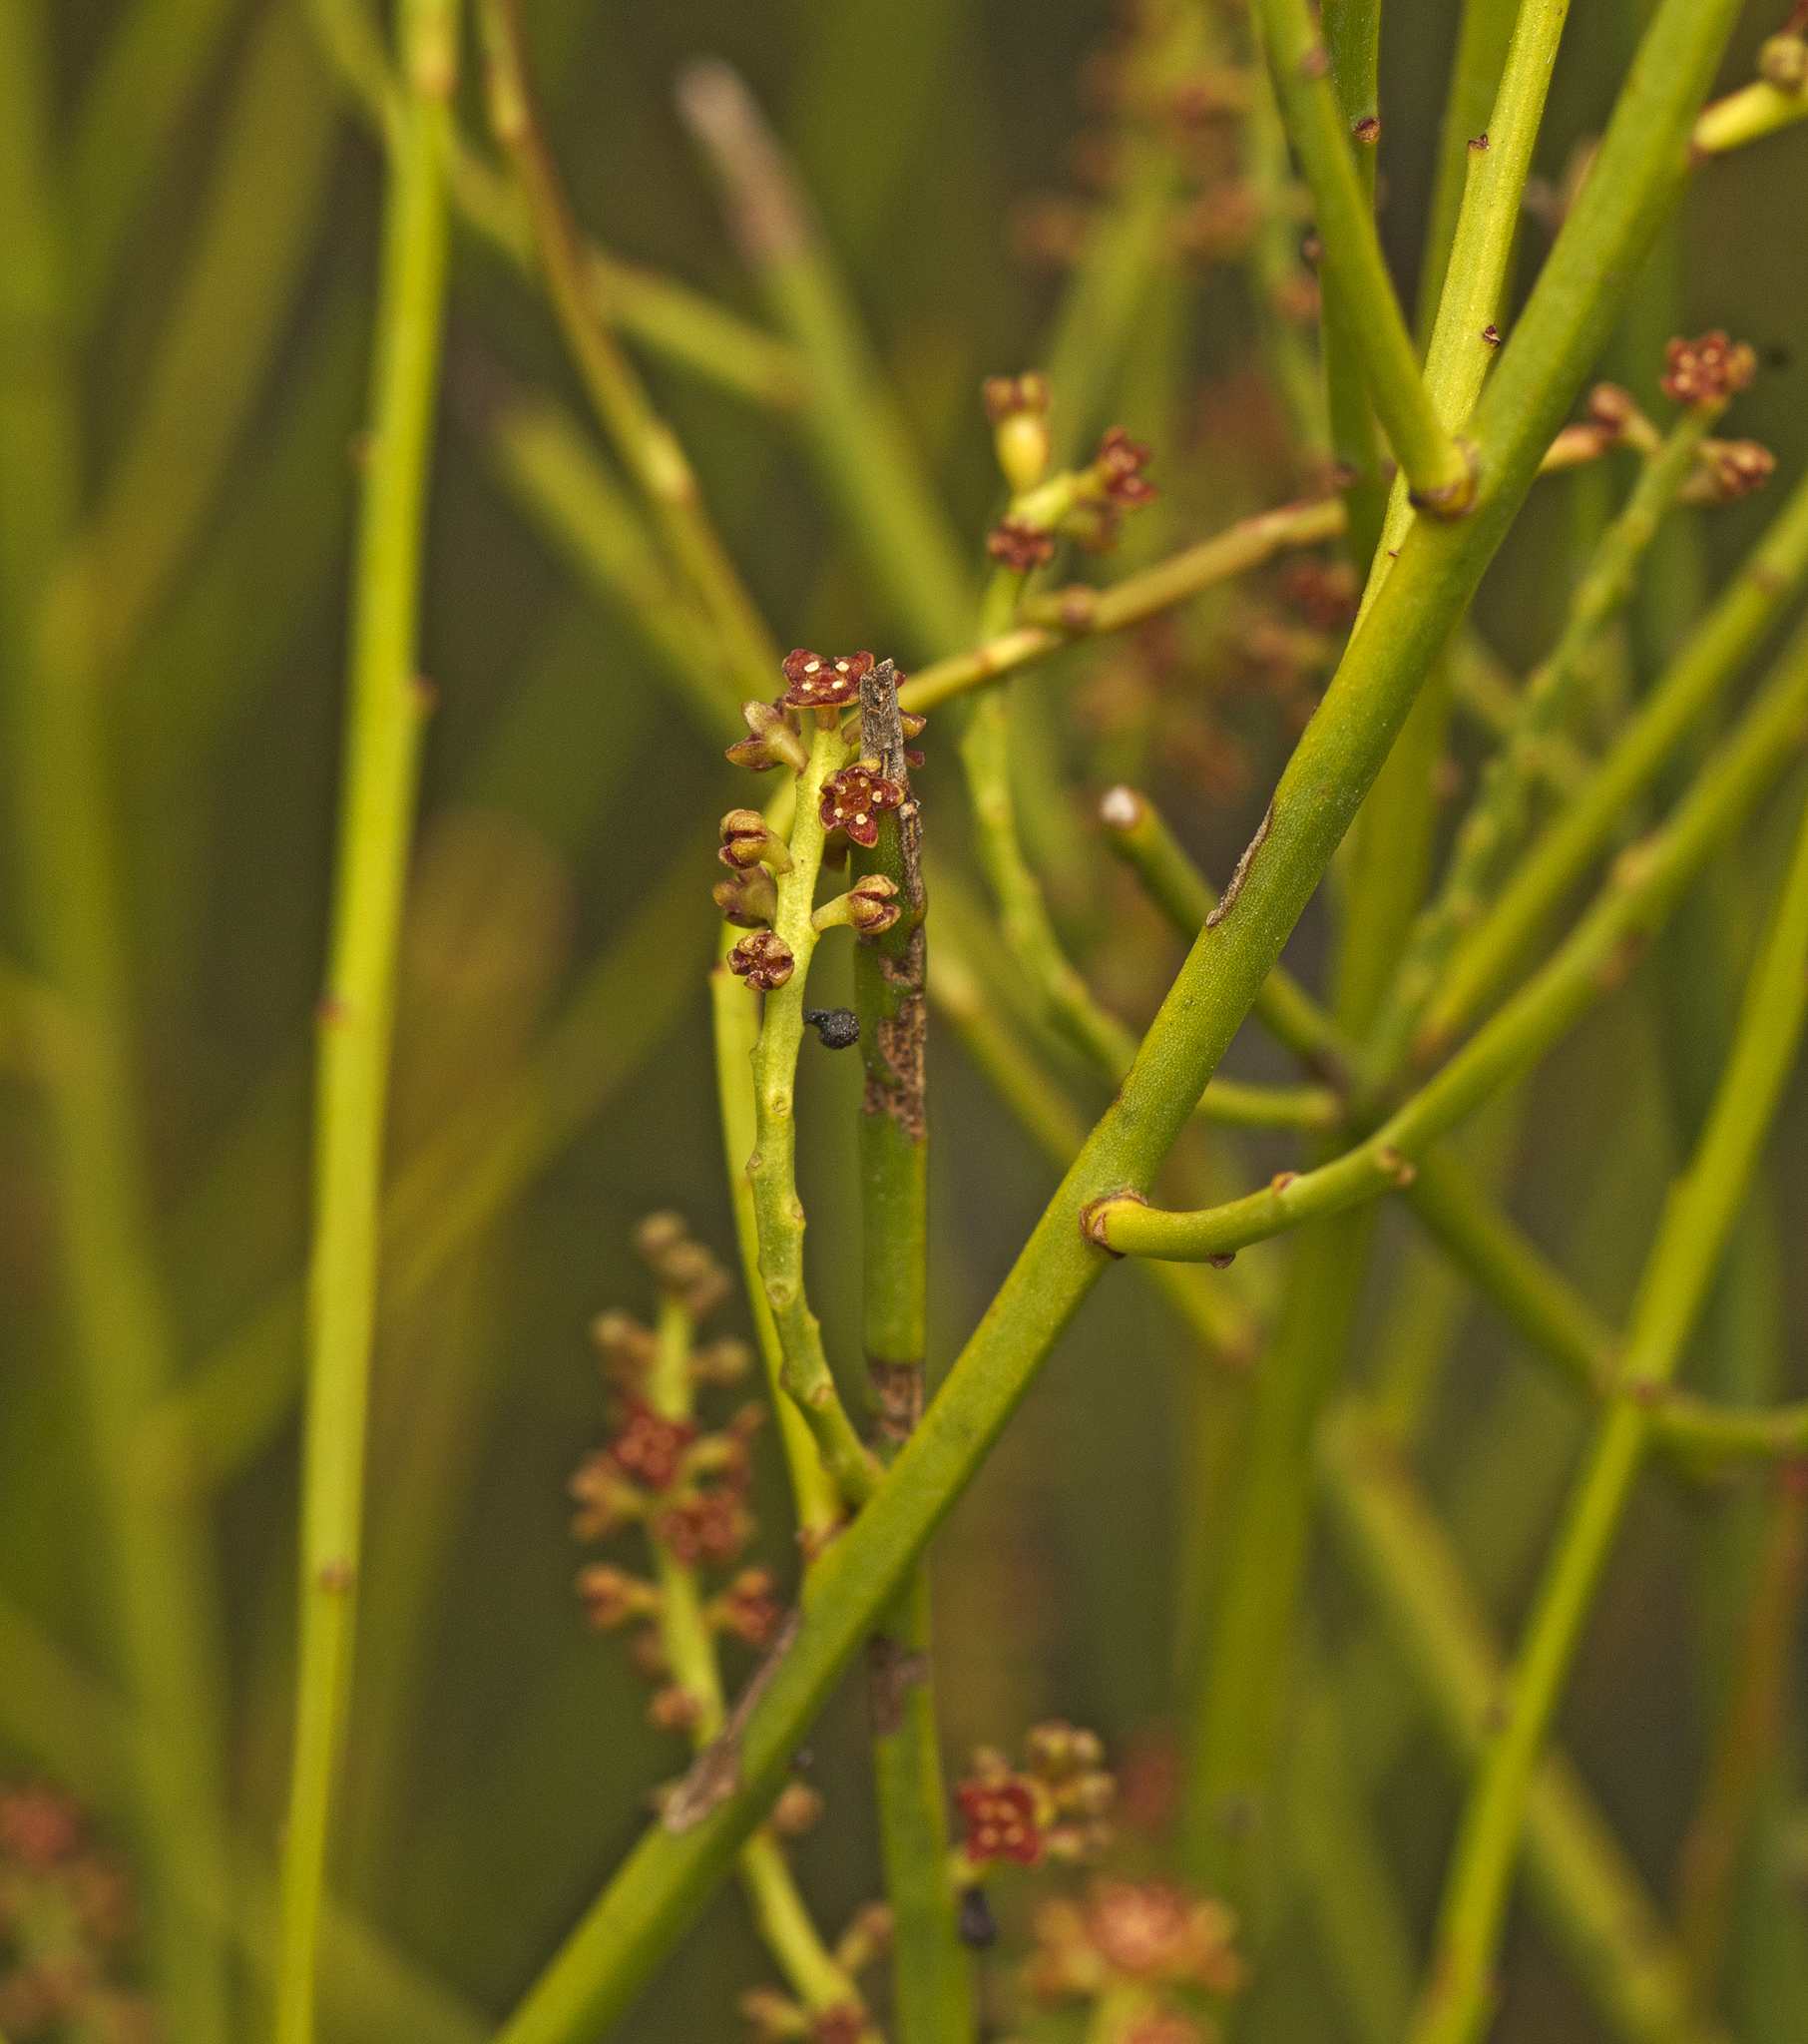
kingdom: Plantae
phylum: Tracheophyta
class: Magnoliopsida
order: Santalales
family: Amphorogynaceae
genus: Leptomeria
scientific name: Leptomeria acida
